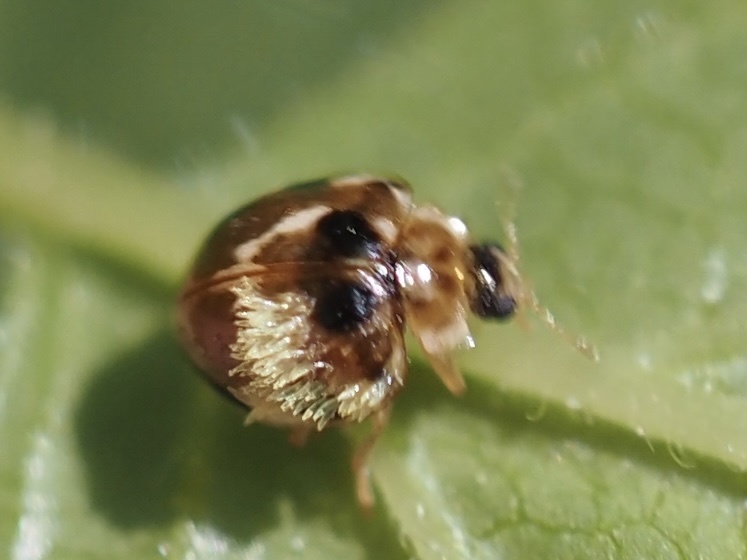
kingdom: Animalia
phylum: Arthropoda
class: Insecta
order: Coleoptera
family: Coccinellidae
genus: Psyllobora
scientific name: Psyllobora vigintimaculata
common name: Ladybird beetle
